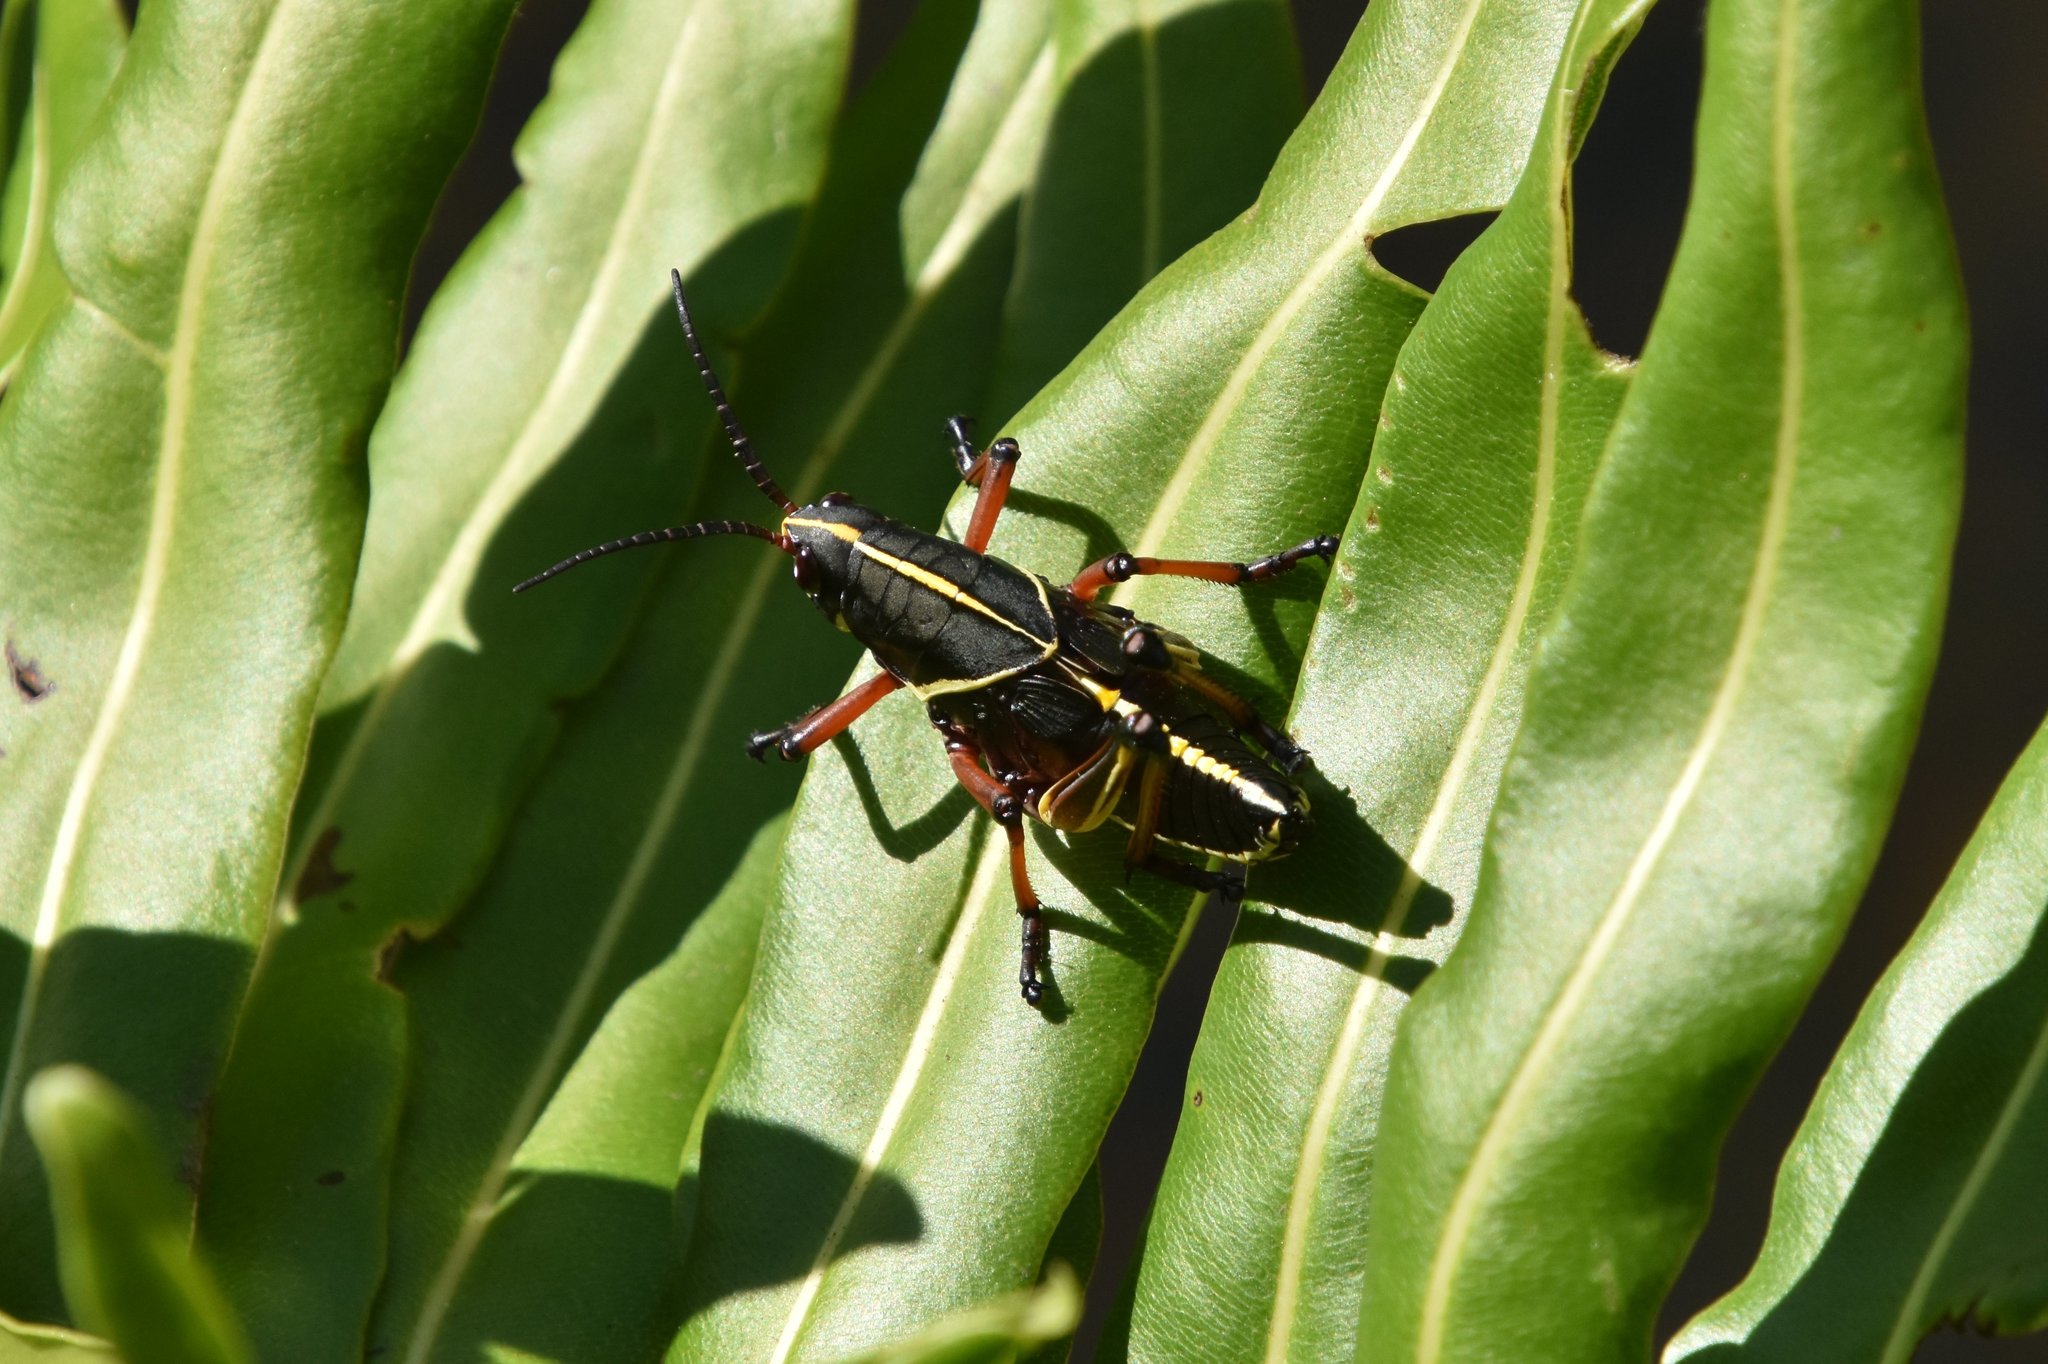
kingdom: Animalia
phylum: Arthropoda
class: Insecta
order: Orthoptera
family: Romaleidae
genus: Romalea
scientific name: Romalea microptera
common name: Eastern lubber grasshopper
